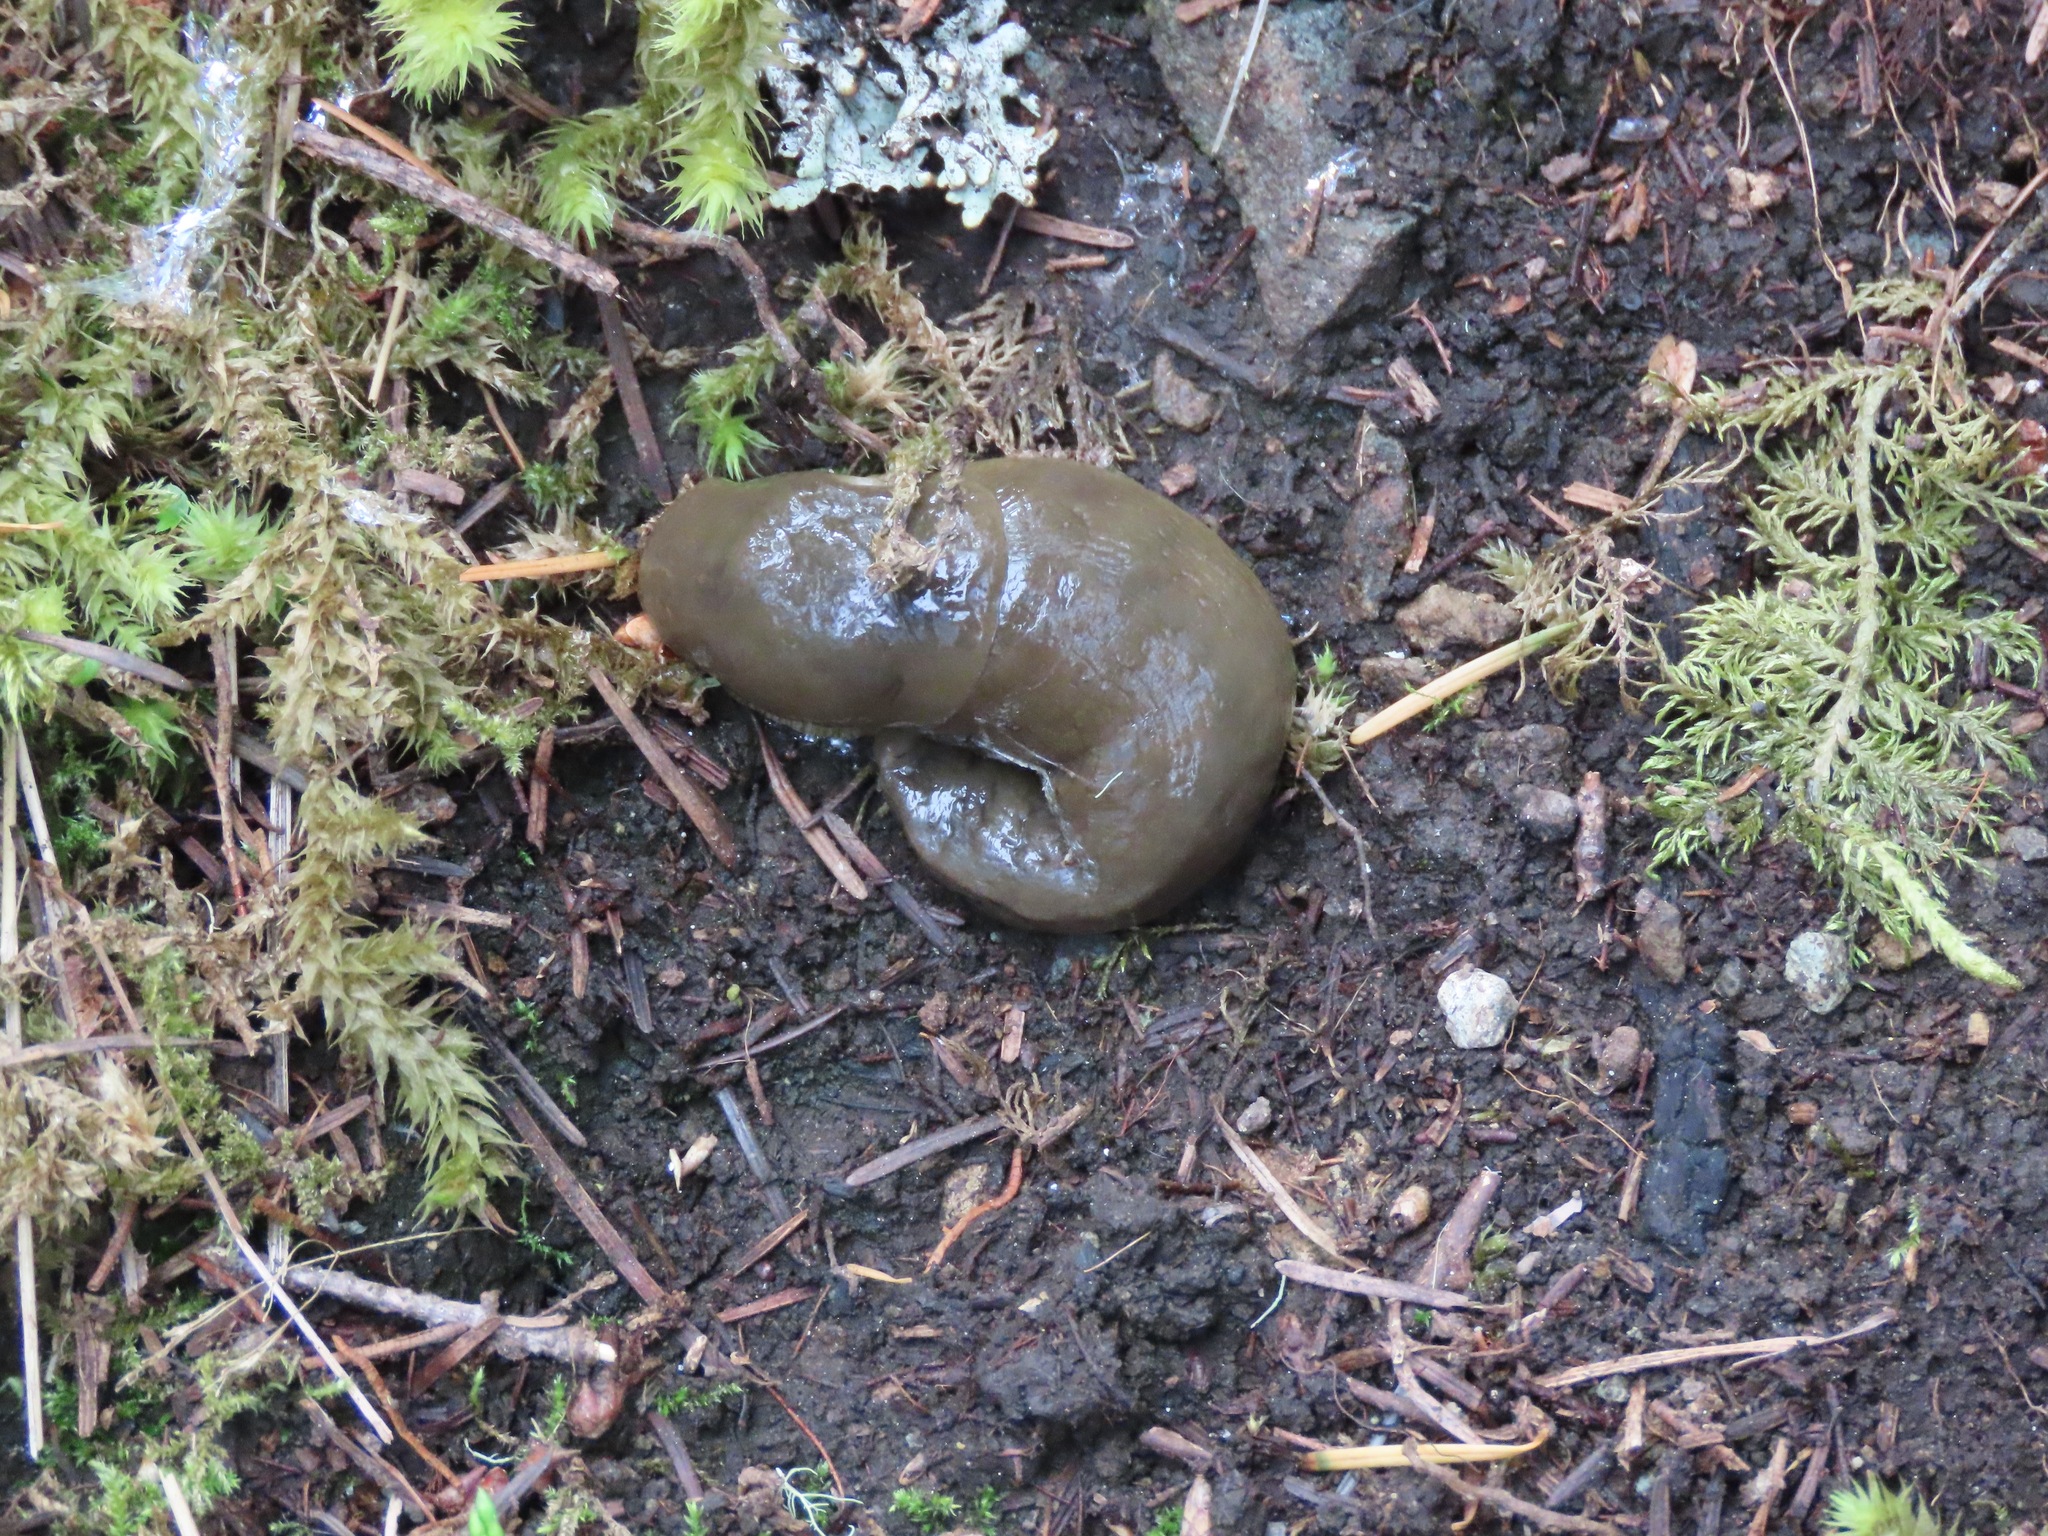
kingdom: Animalia
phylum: Mollusca
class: Gastropoda
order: Stylommatophora
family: Ariolimacidae
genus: Ariolimax
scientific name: Ariolimax columbianus
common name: Pacific banana slug
